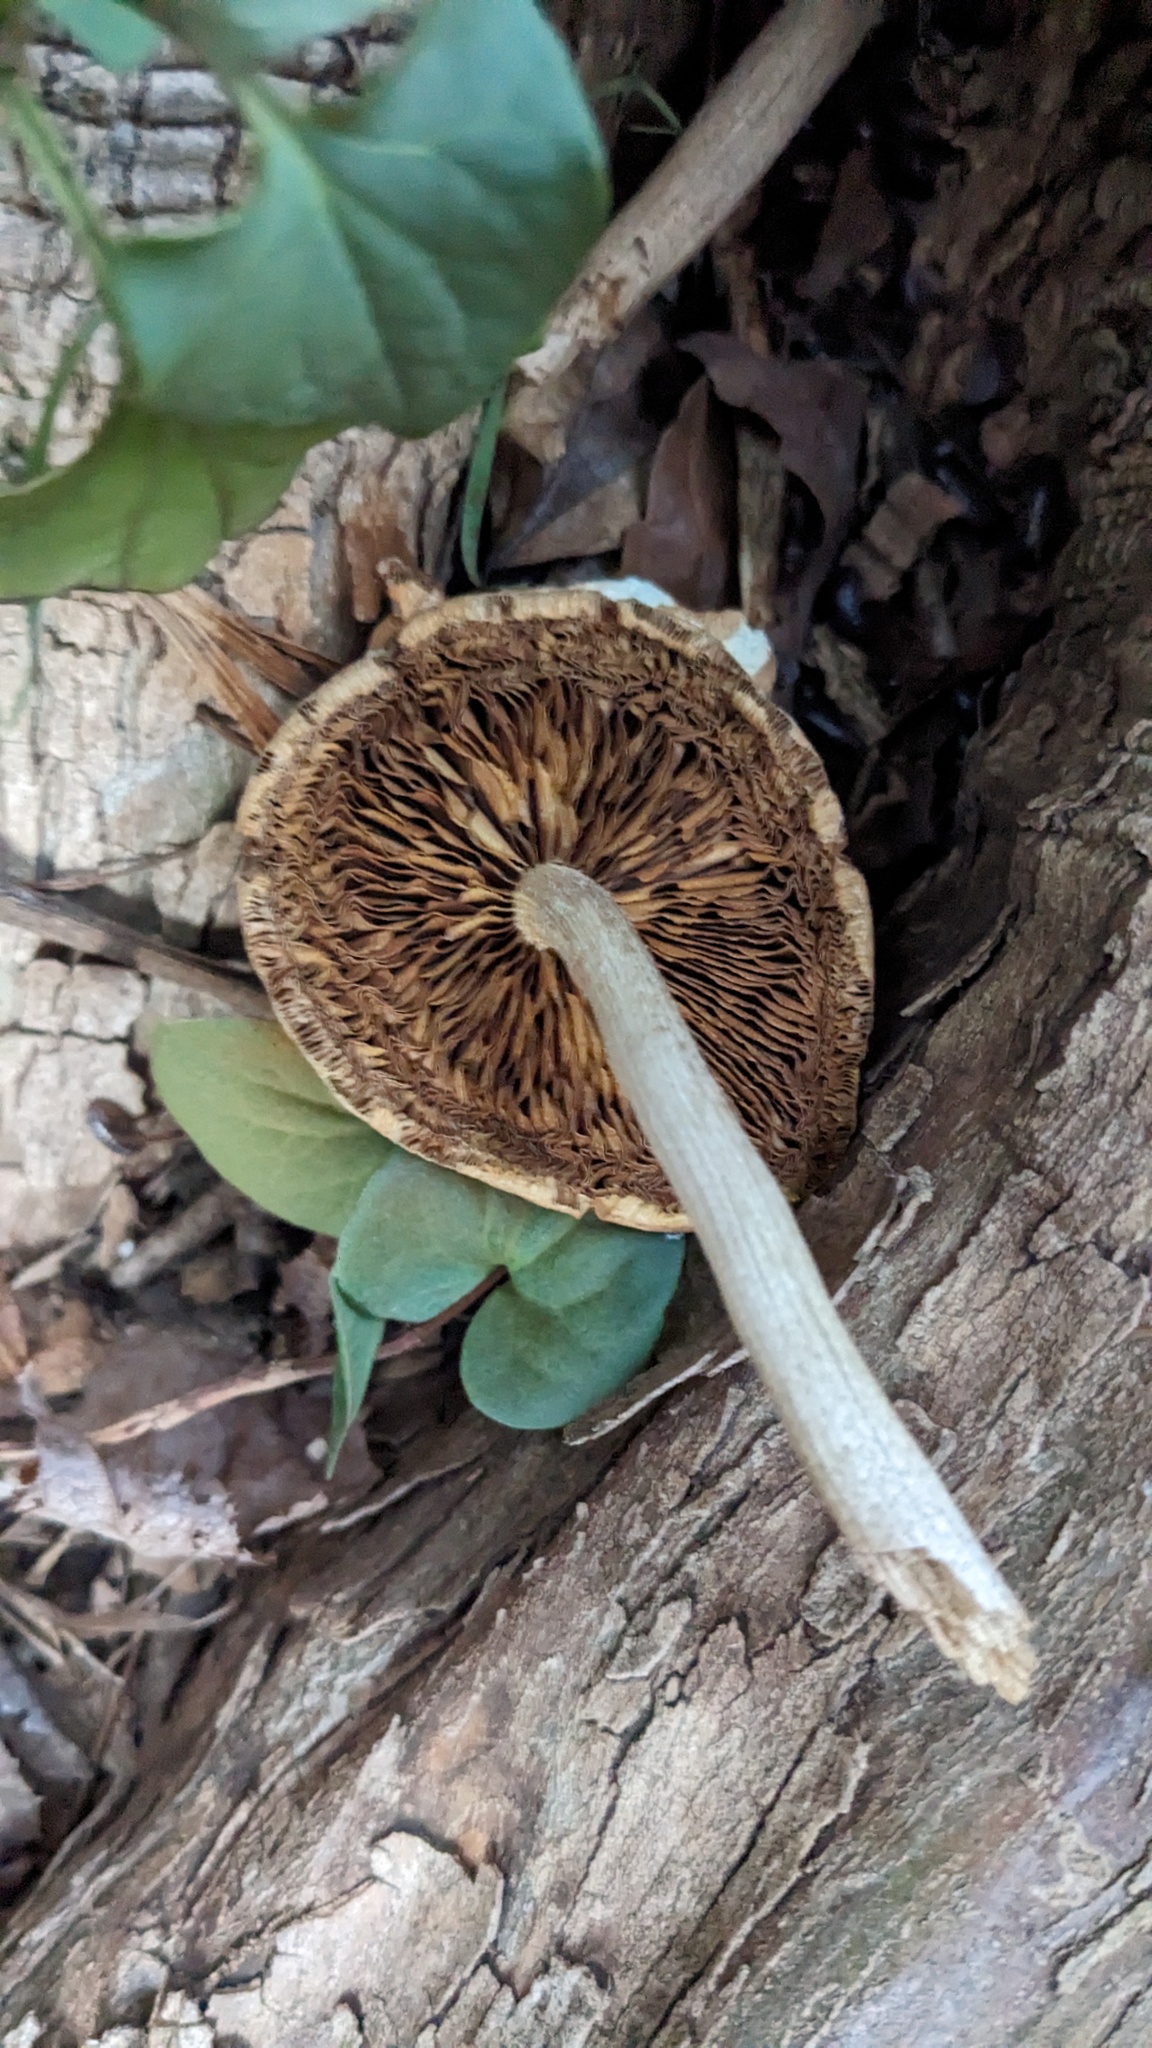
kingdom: Fungi
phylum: Basidiomycota
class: Agaricomycetes
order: Agaricales
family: Tubariaceae
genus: Cyclocybe
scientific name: Cyclocybe cylindracea
